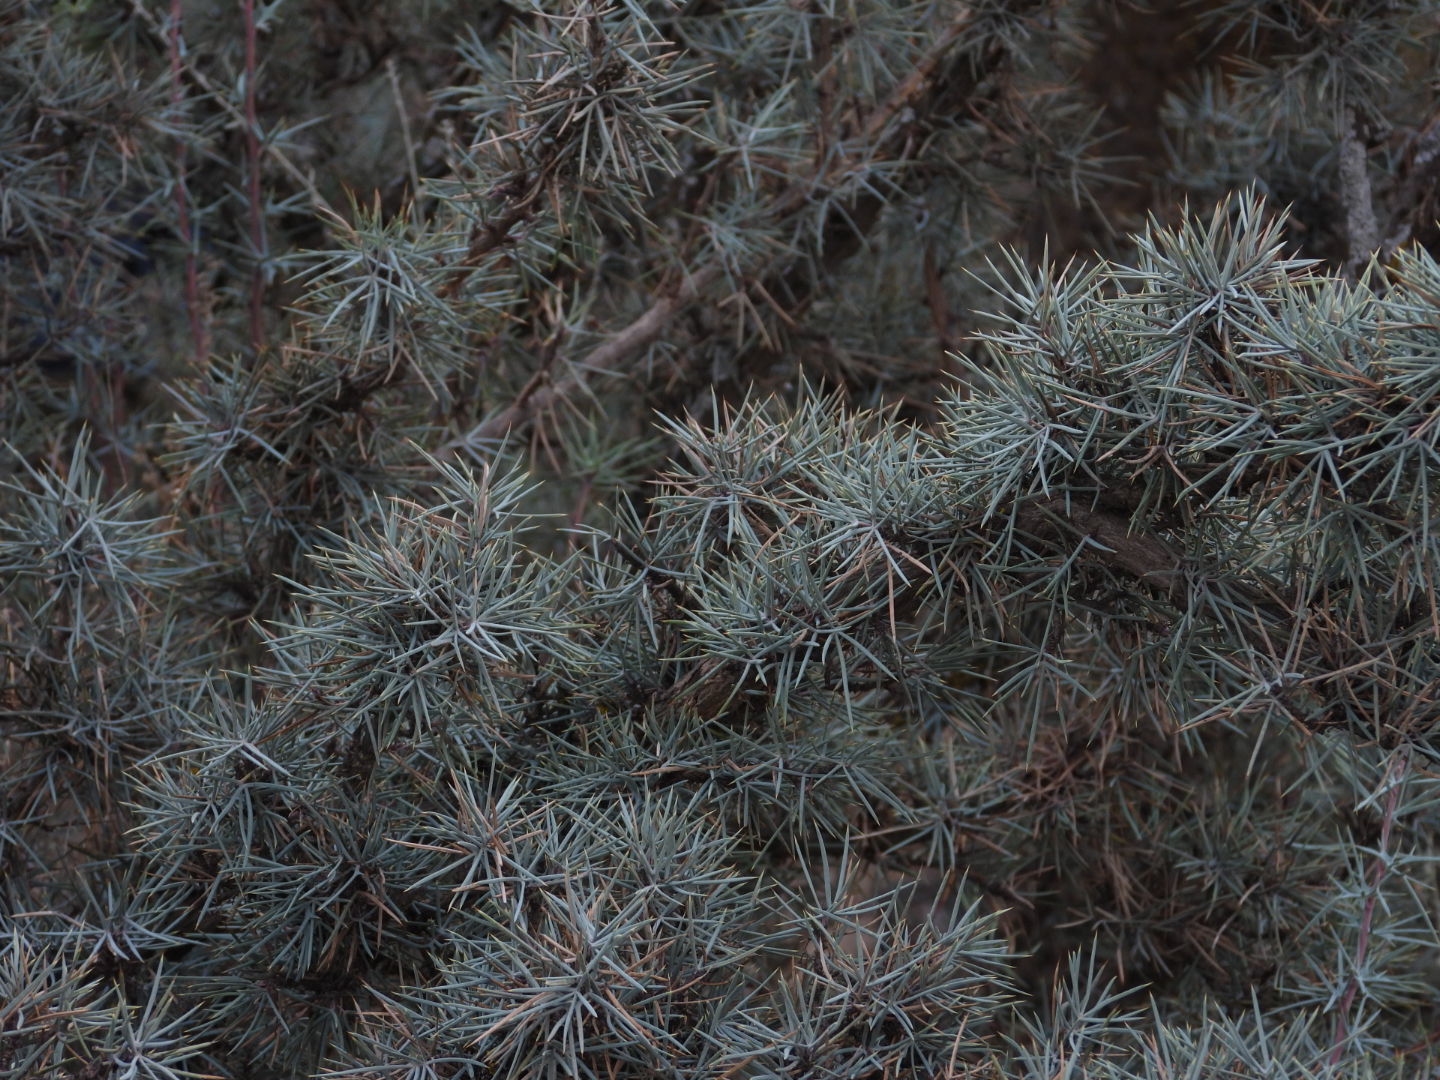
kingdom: Plantae
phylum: Tracheophyta
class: Magnoliopsida
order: Ranunculales
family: Berberidaceae
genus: Alloberberis
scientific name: Alloberberis pinifolia
